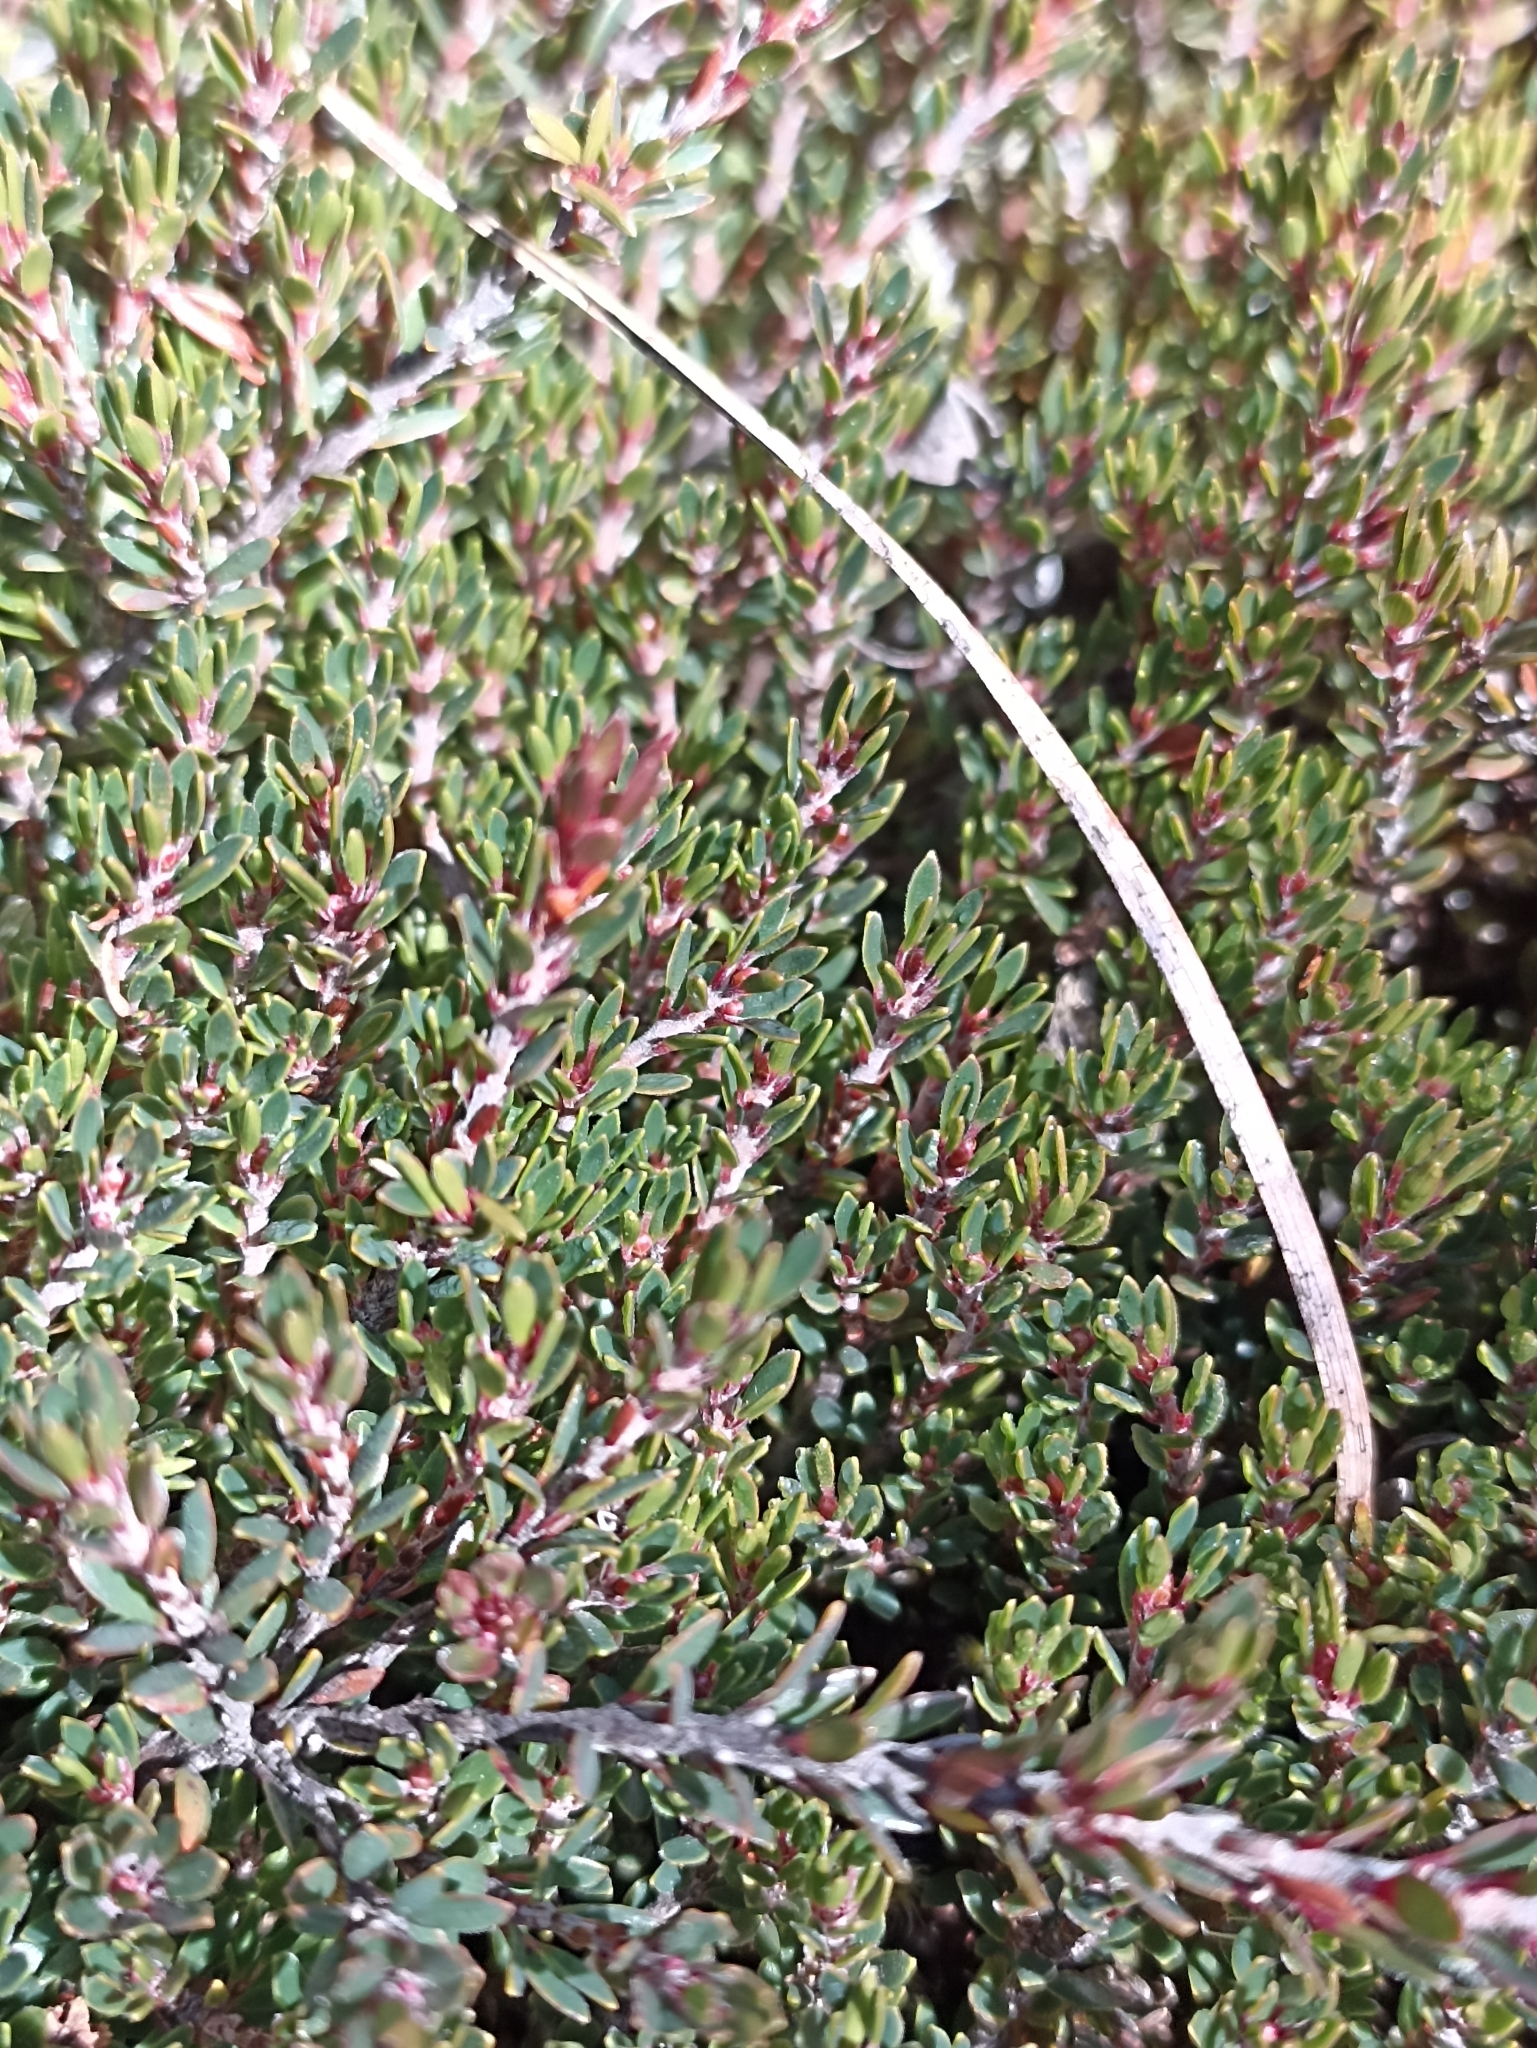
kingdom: Plantae
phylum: Tracheophyta
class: Magnoliopsida
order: Ericales
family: Ericaceae
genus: Pentachondra
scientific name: Pentachondra pumila
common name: Carpet-heath
